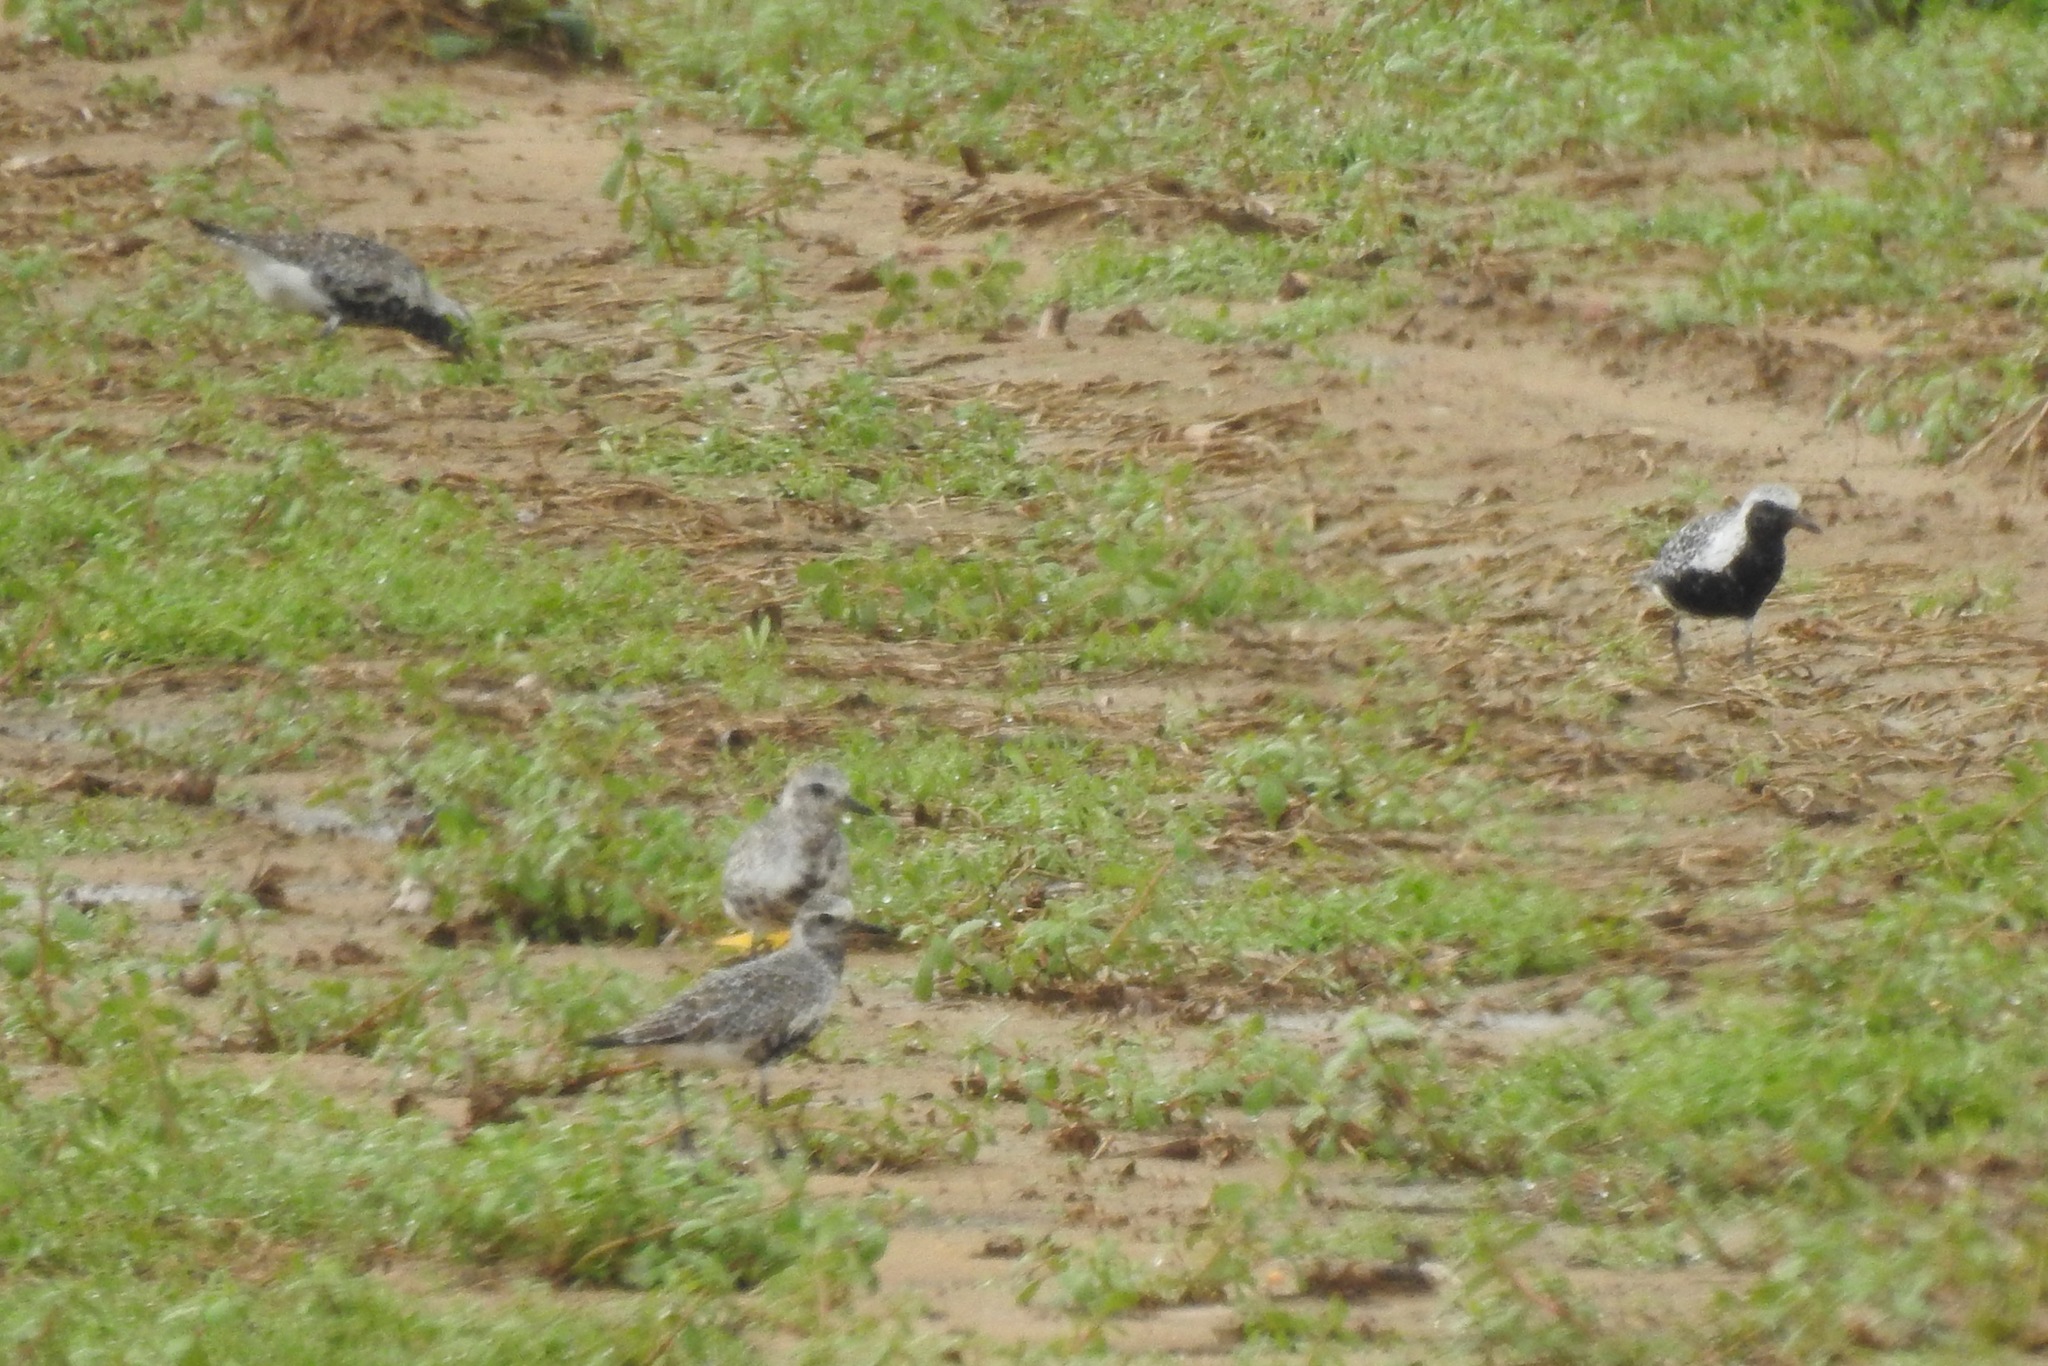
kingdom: Animalia
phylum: Chordata
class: Aves
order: Charadriiformes
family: Charadriidae
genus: Pluvialis
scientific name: Pluvialis squatarola
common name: Grey plover
